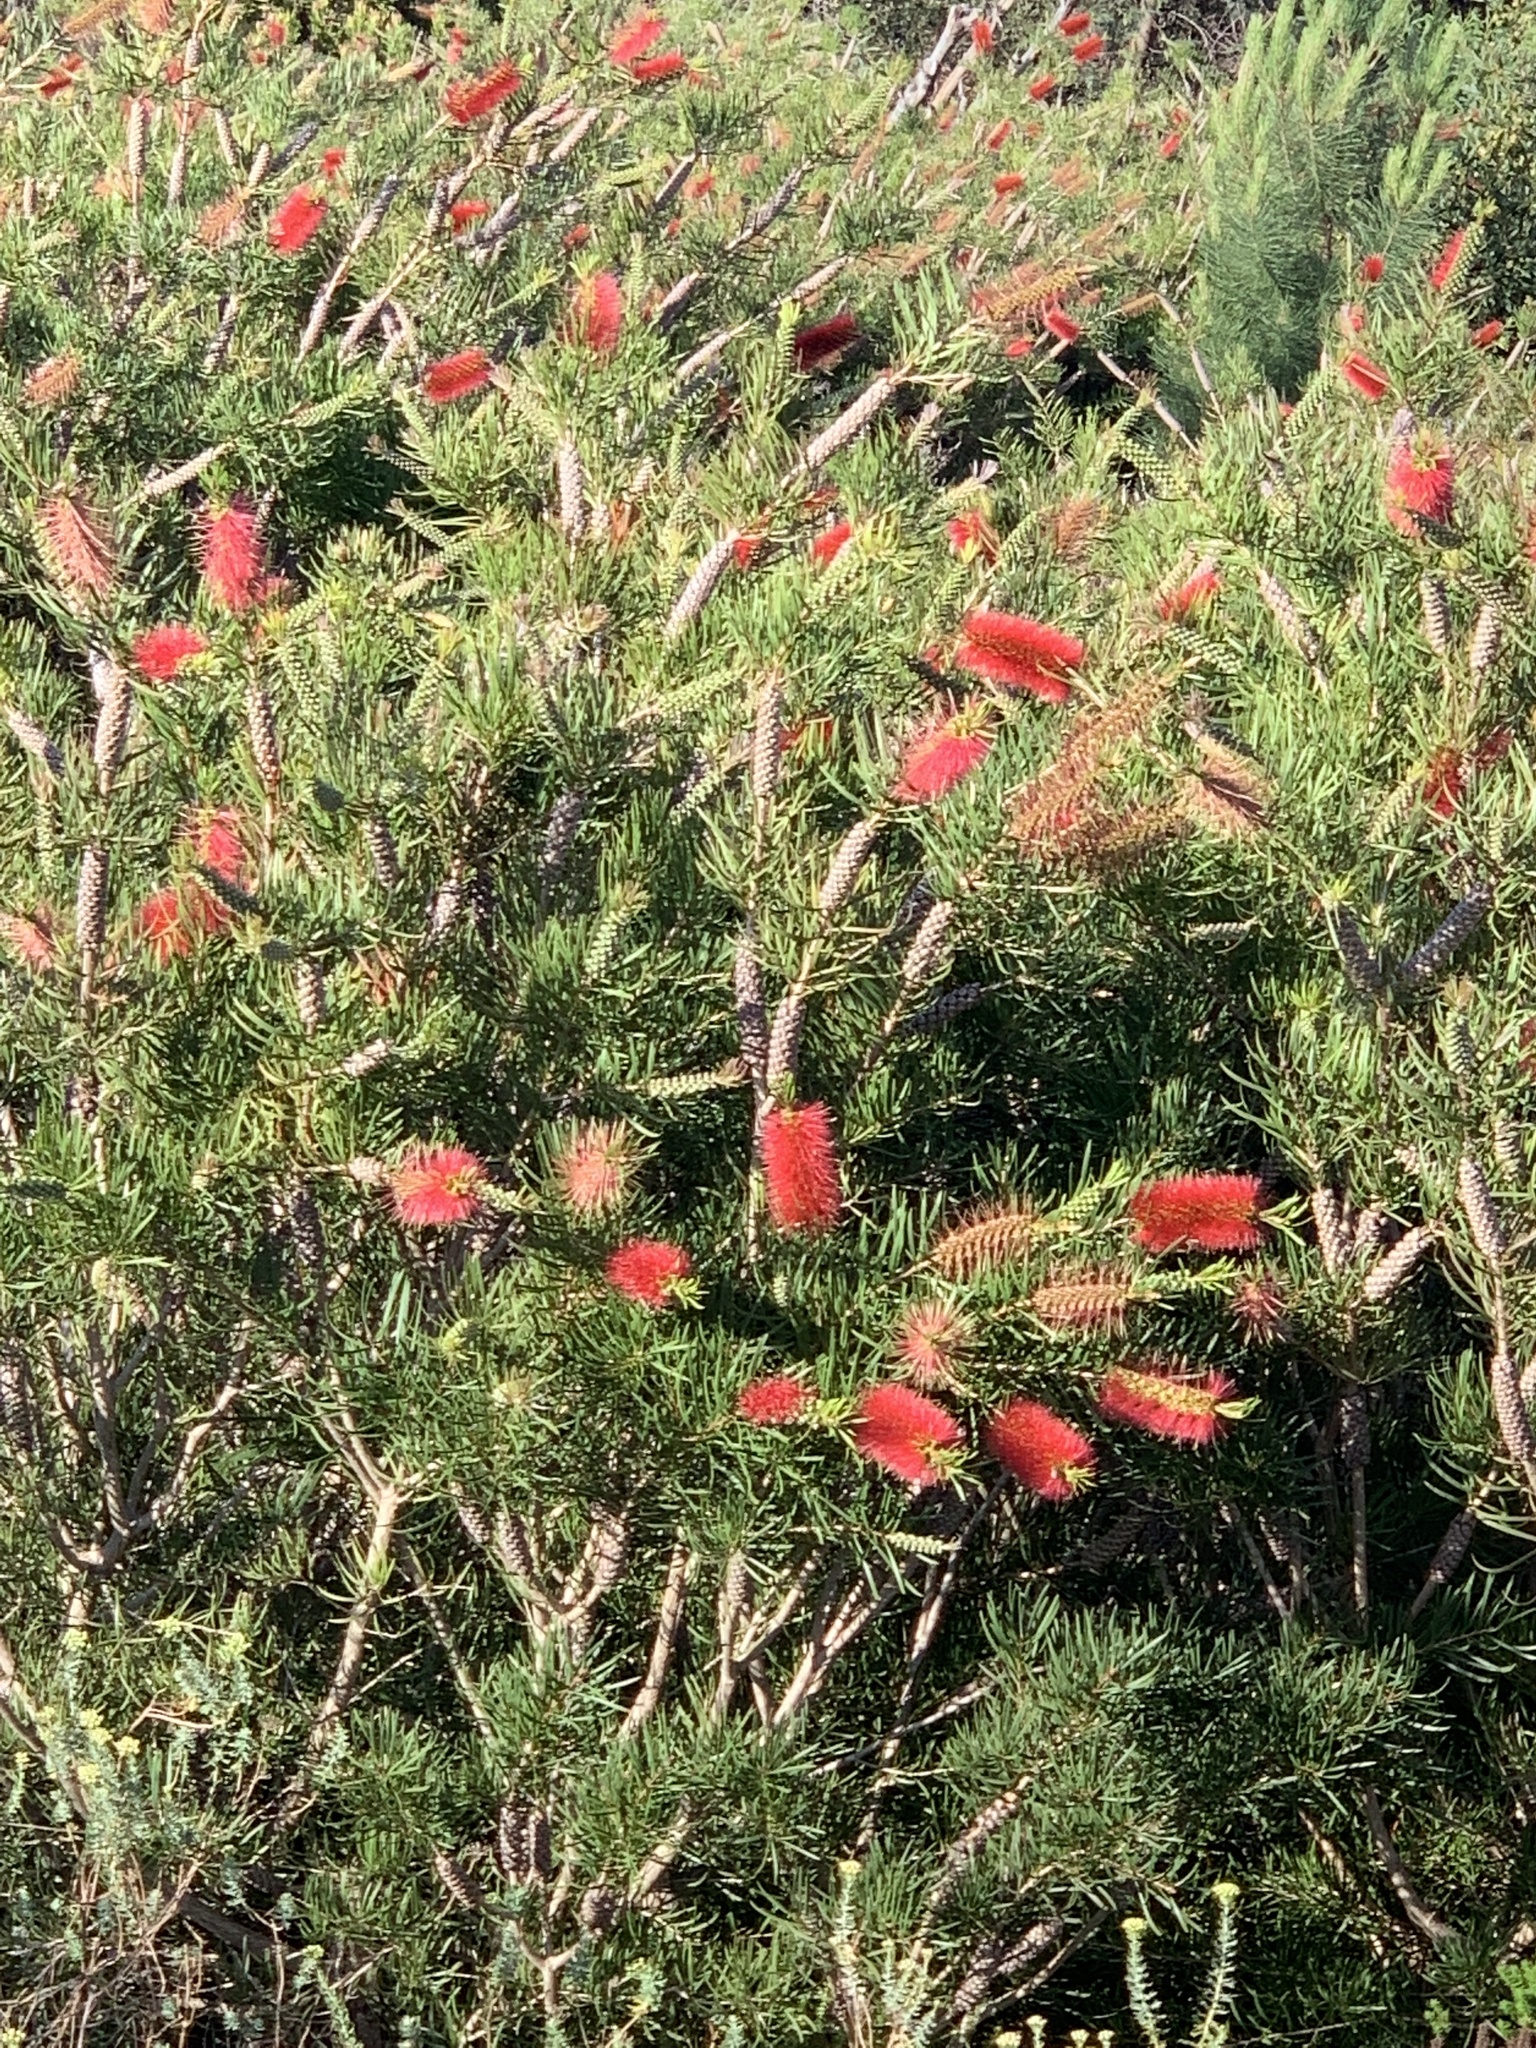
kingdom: Plantae
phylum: Tracheophyta
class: Magnoliopsida
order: Myrtales
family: Myrtaceae
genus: Callistemon
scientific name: Callistemon linearis
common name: Narrow-leaf bottlebrush
